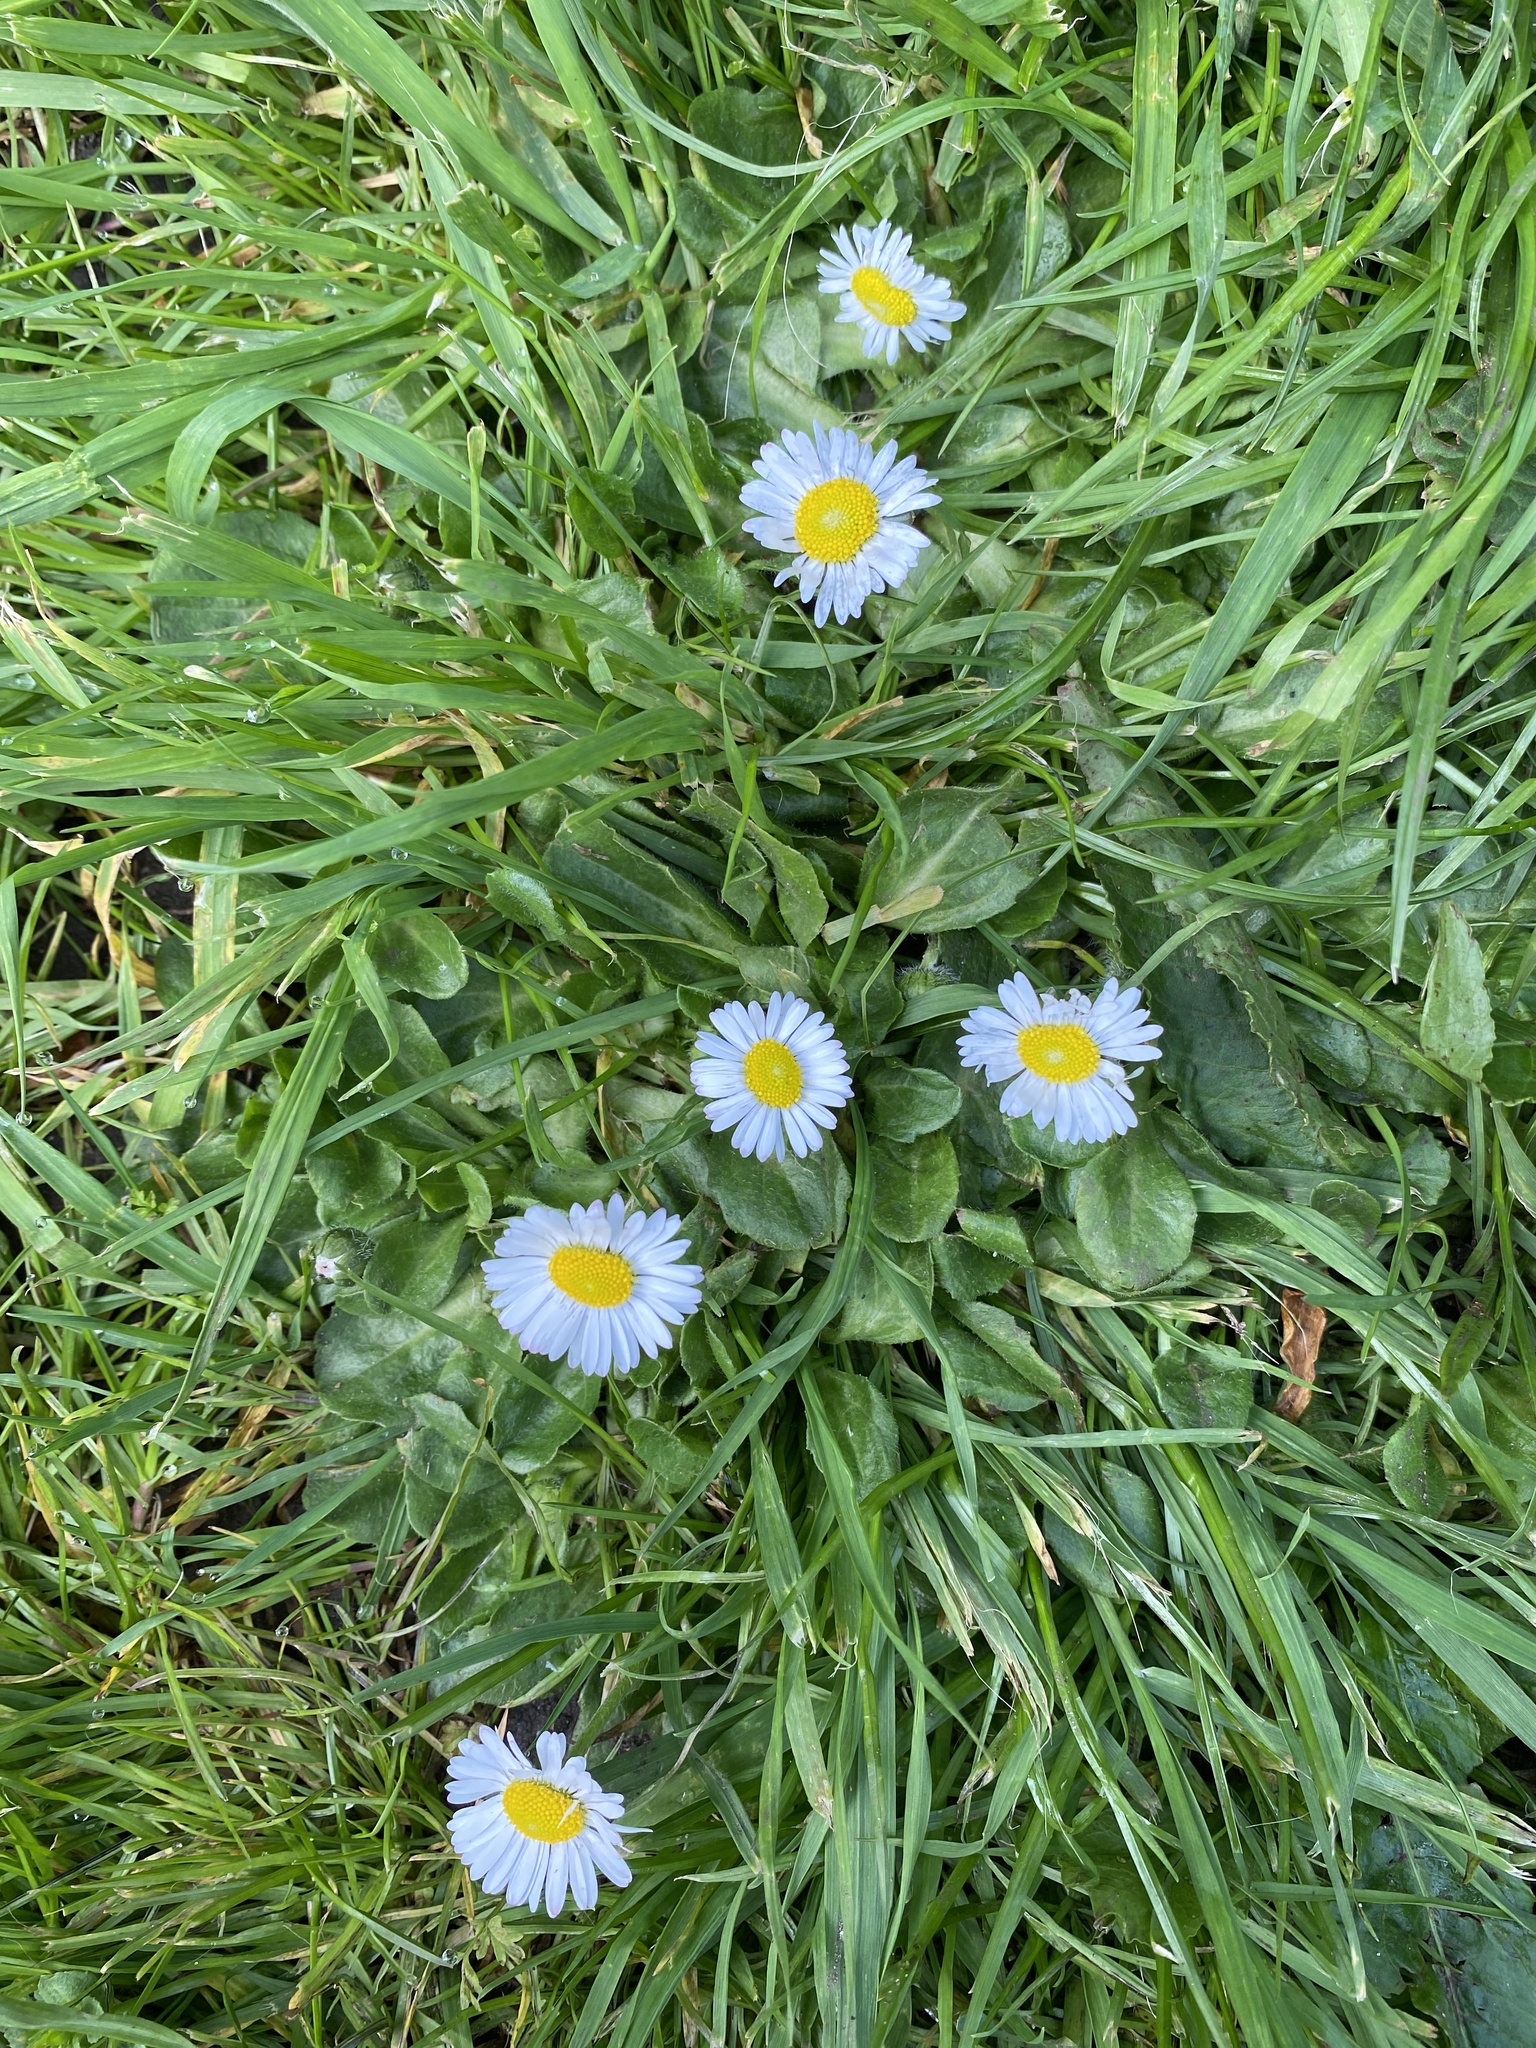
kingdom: Plantae
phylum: Tracheophyta
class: Magnoliopsida
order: Asterales
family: Asteraceae
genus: Bellis
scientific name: Bellis perennis
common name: Lawndaisy
